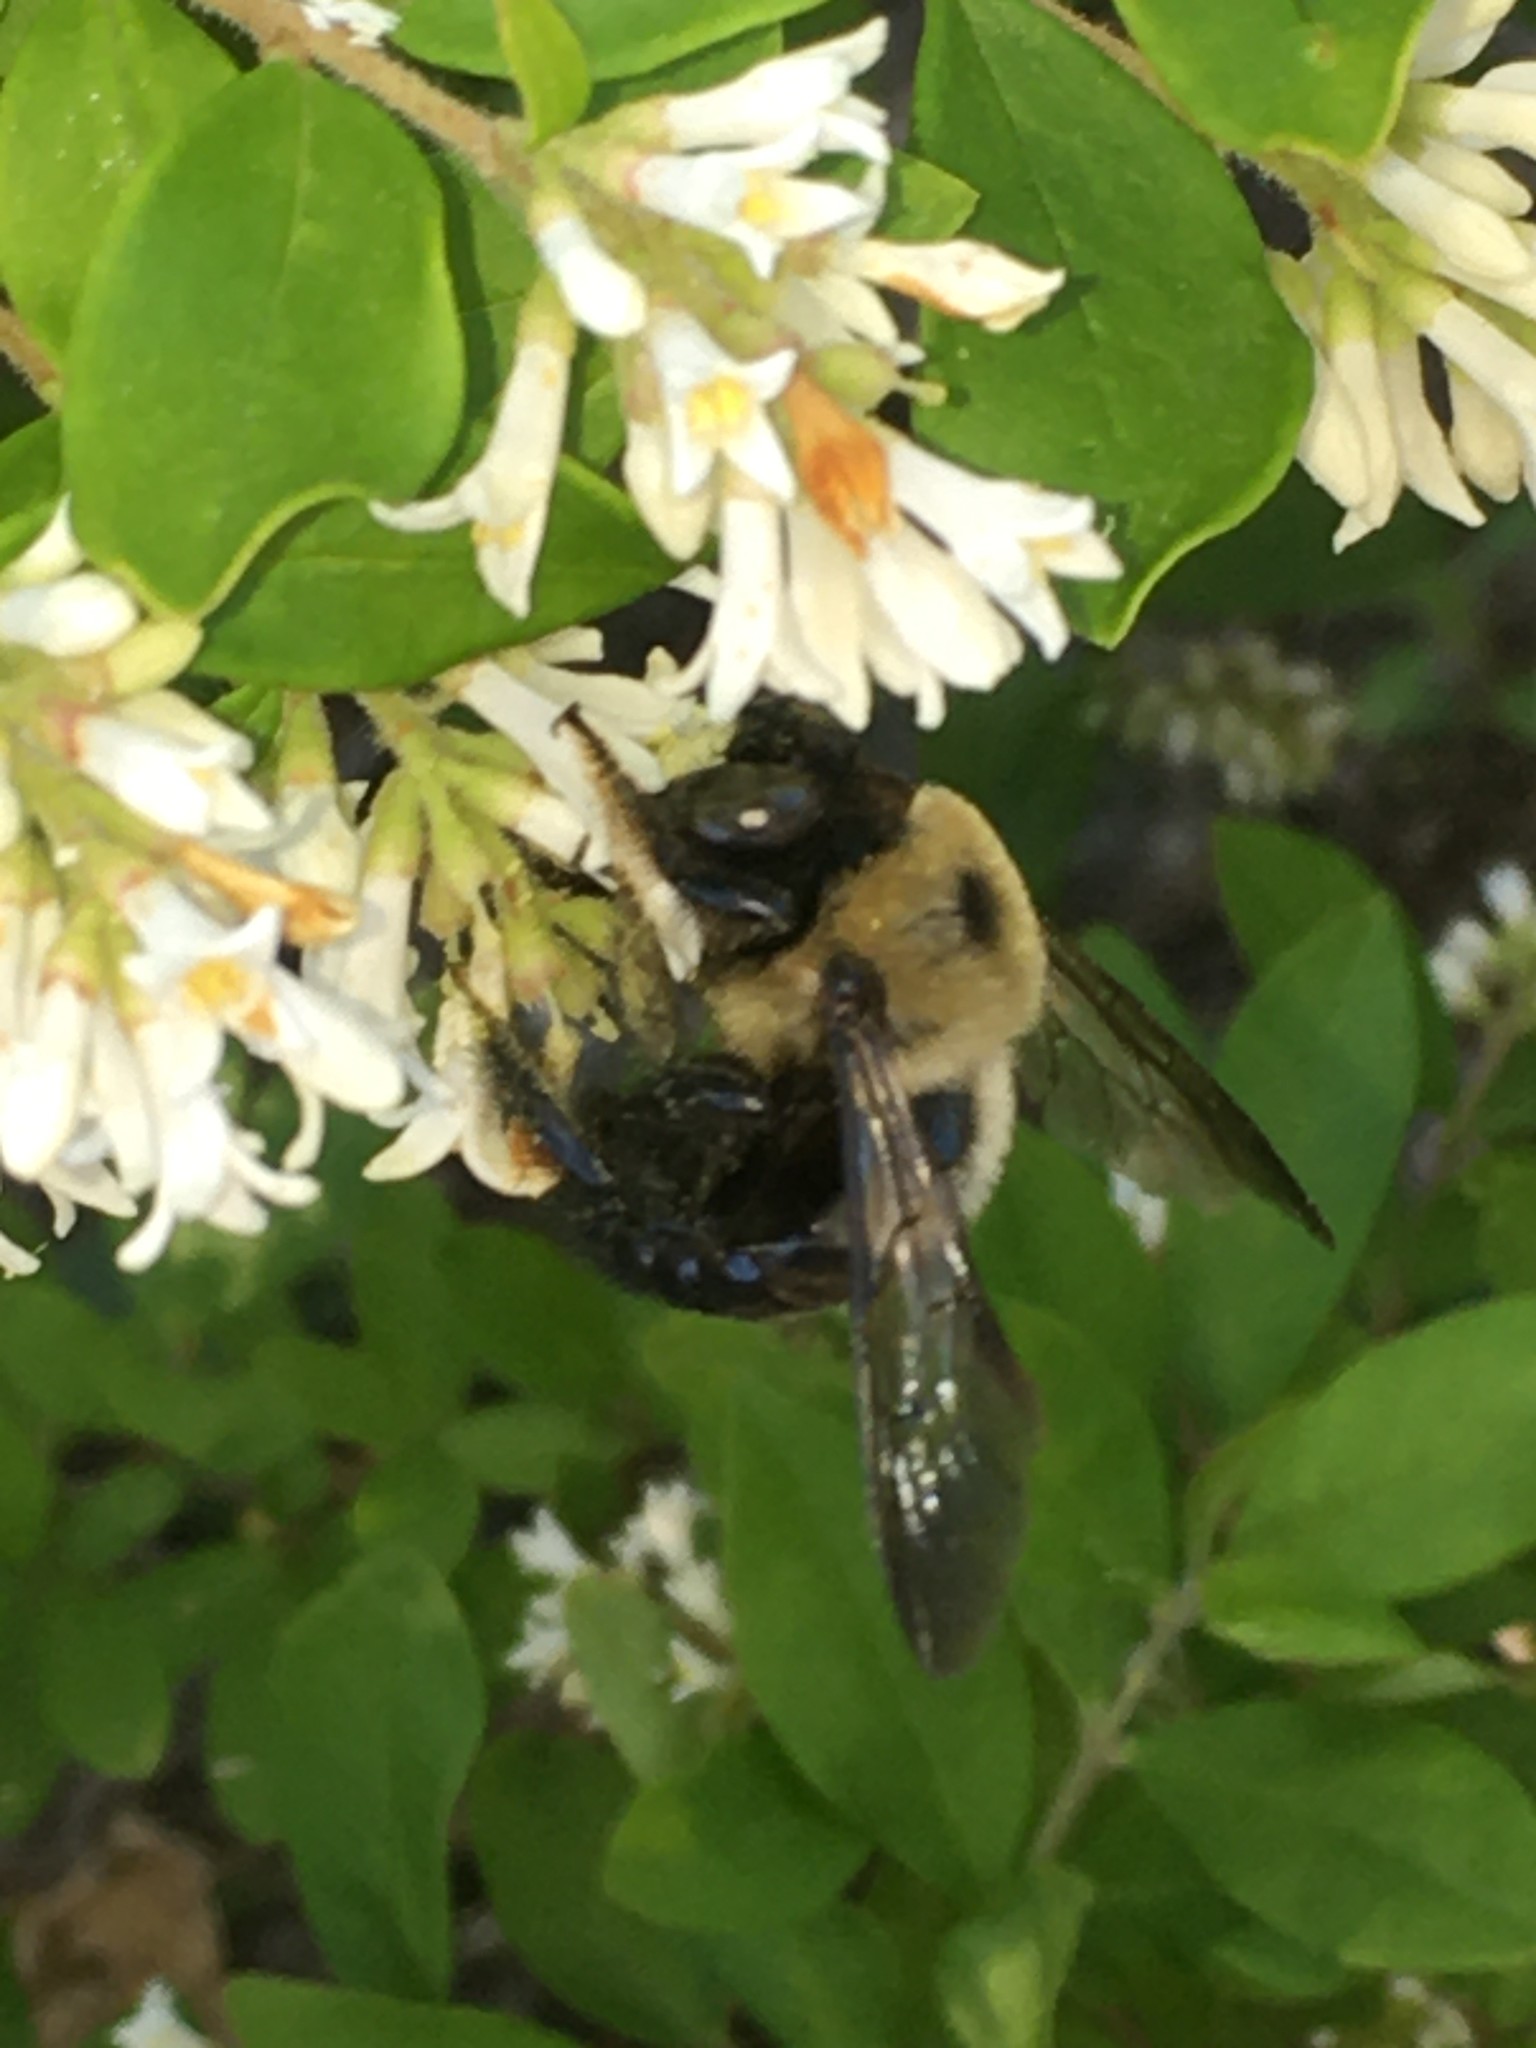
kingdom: Animalia
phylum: Arthropoda
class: Insecta
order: Hymenoptera
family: Apidae
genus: Xylocopa
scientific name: Xylocopa virginica
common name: Carpenter bee
